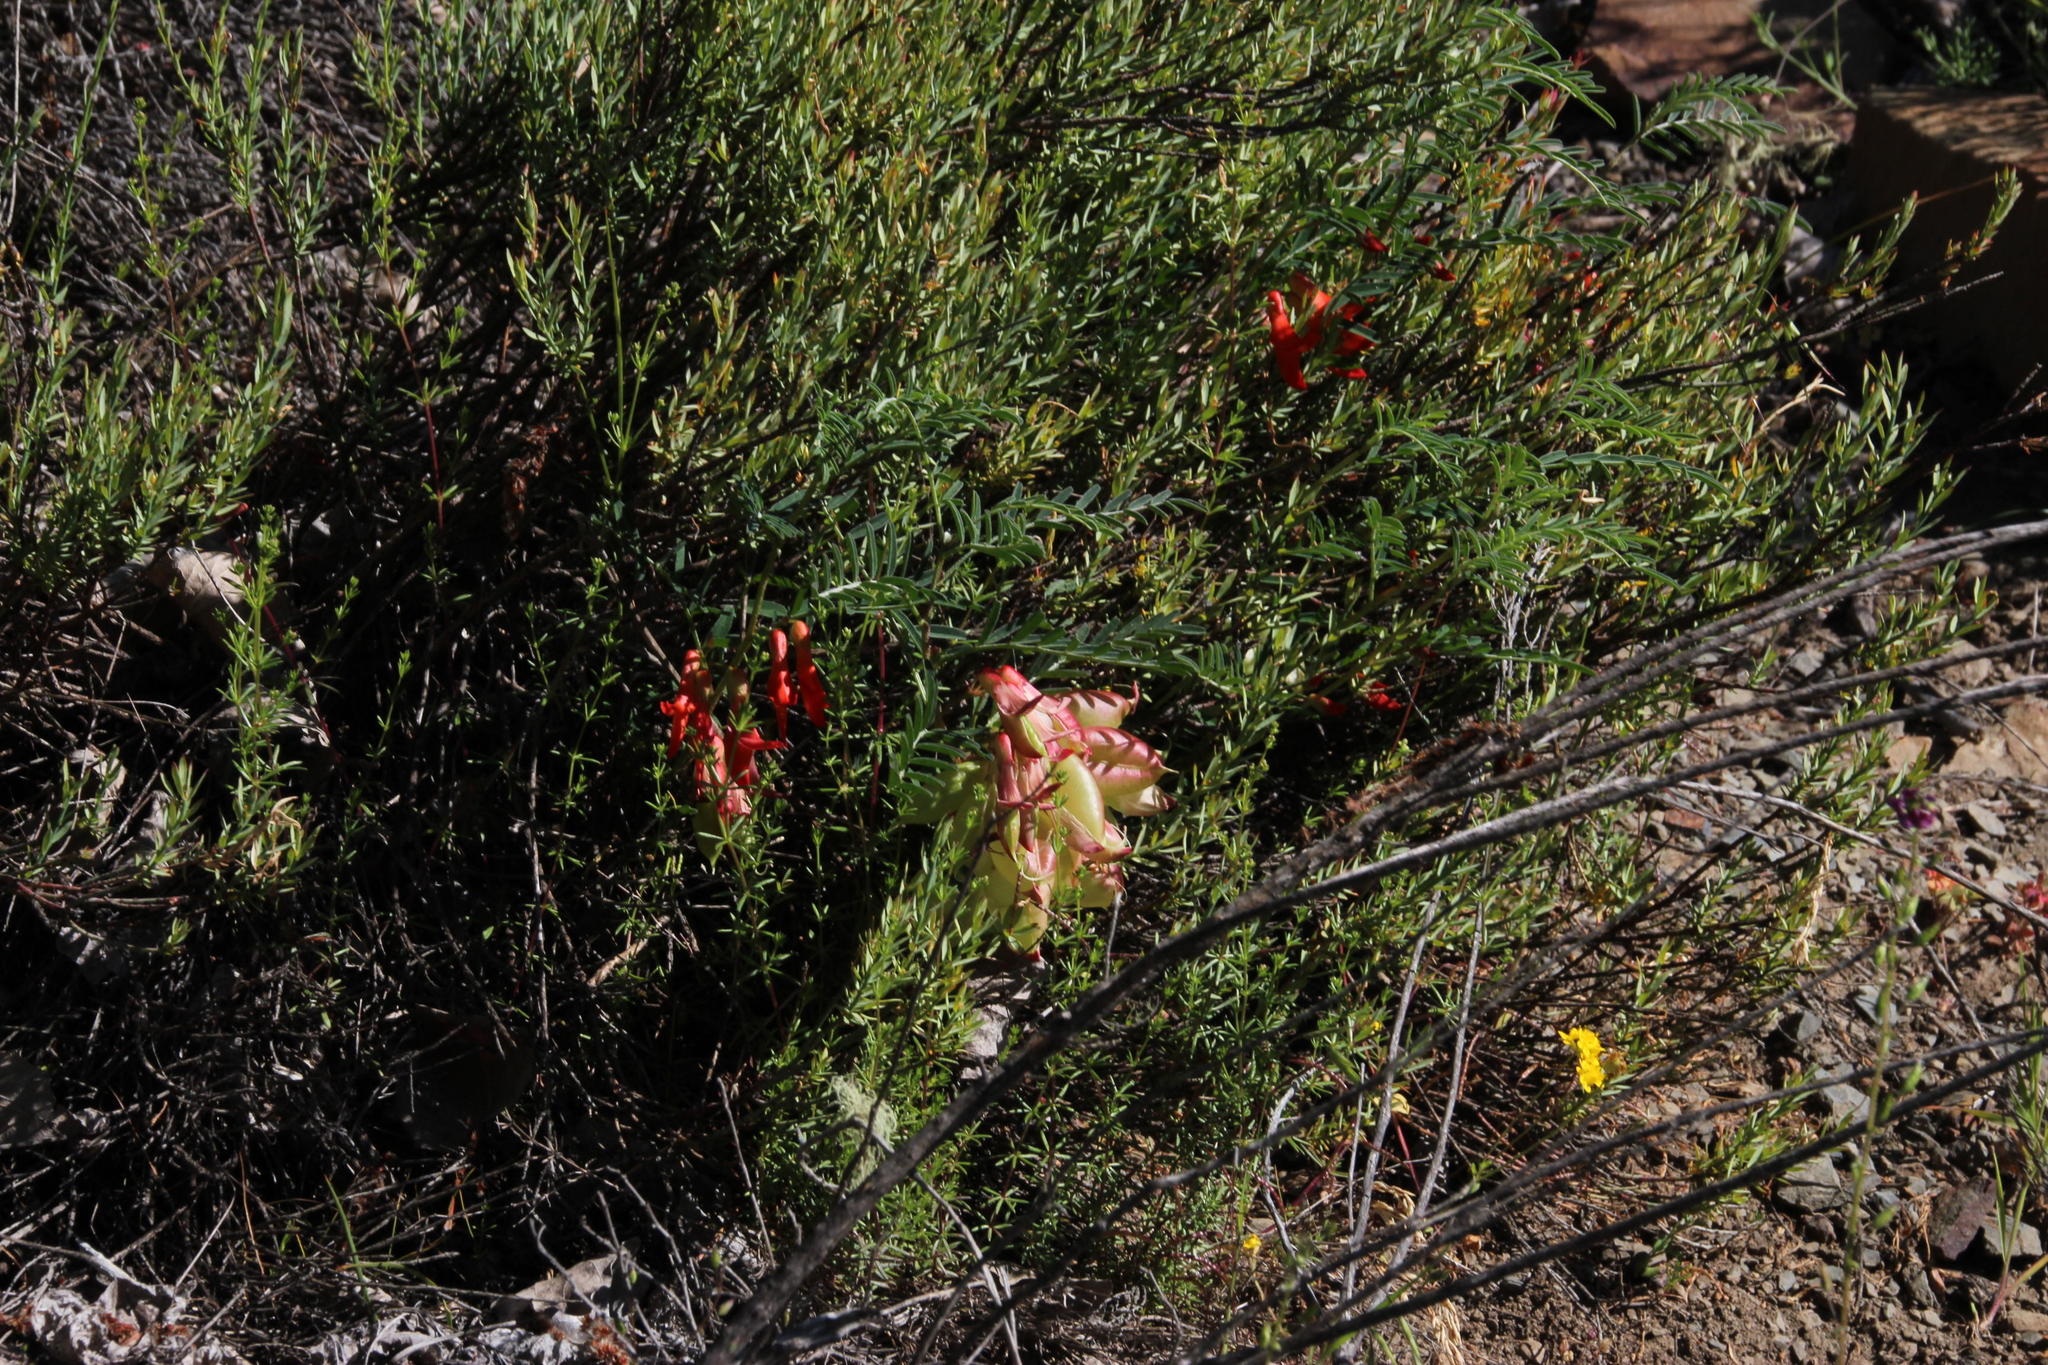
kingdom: Plantae
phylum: Tracheophyta
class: Magnoliopsida
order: Fabales
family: Fabaceae
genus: Lessertia
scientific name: Lessertia frutescens
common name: Balloon-pea
